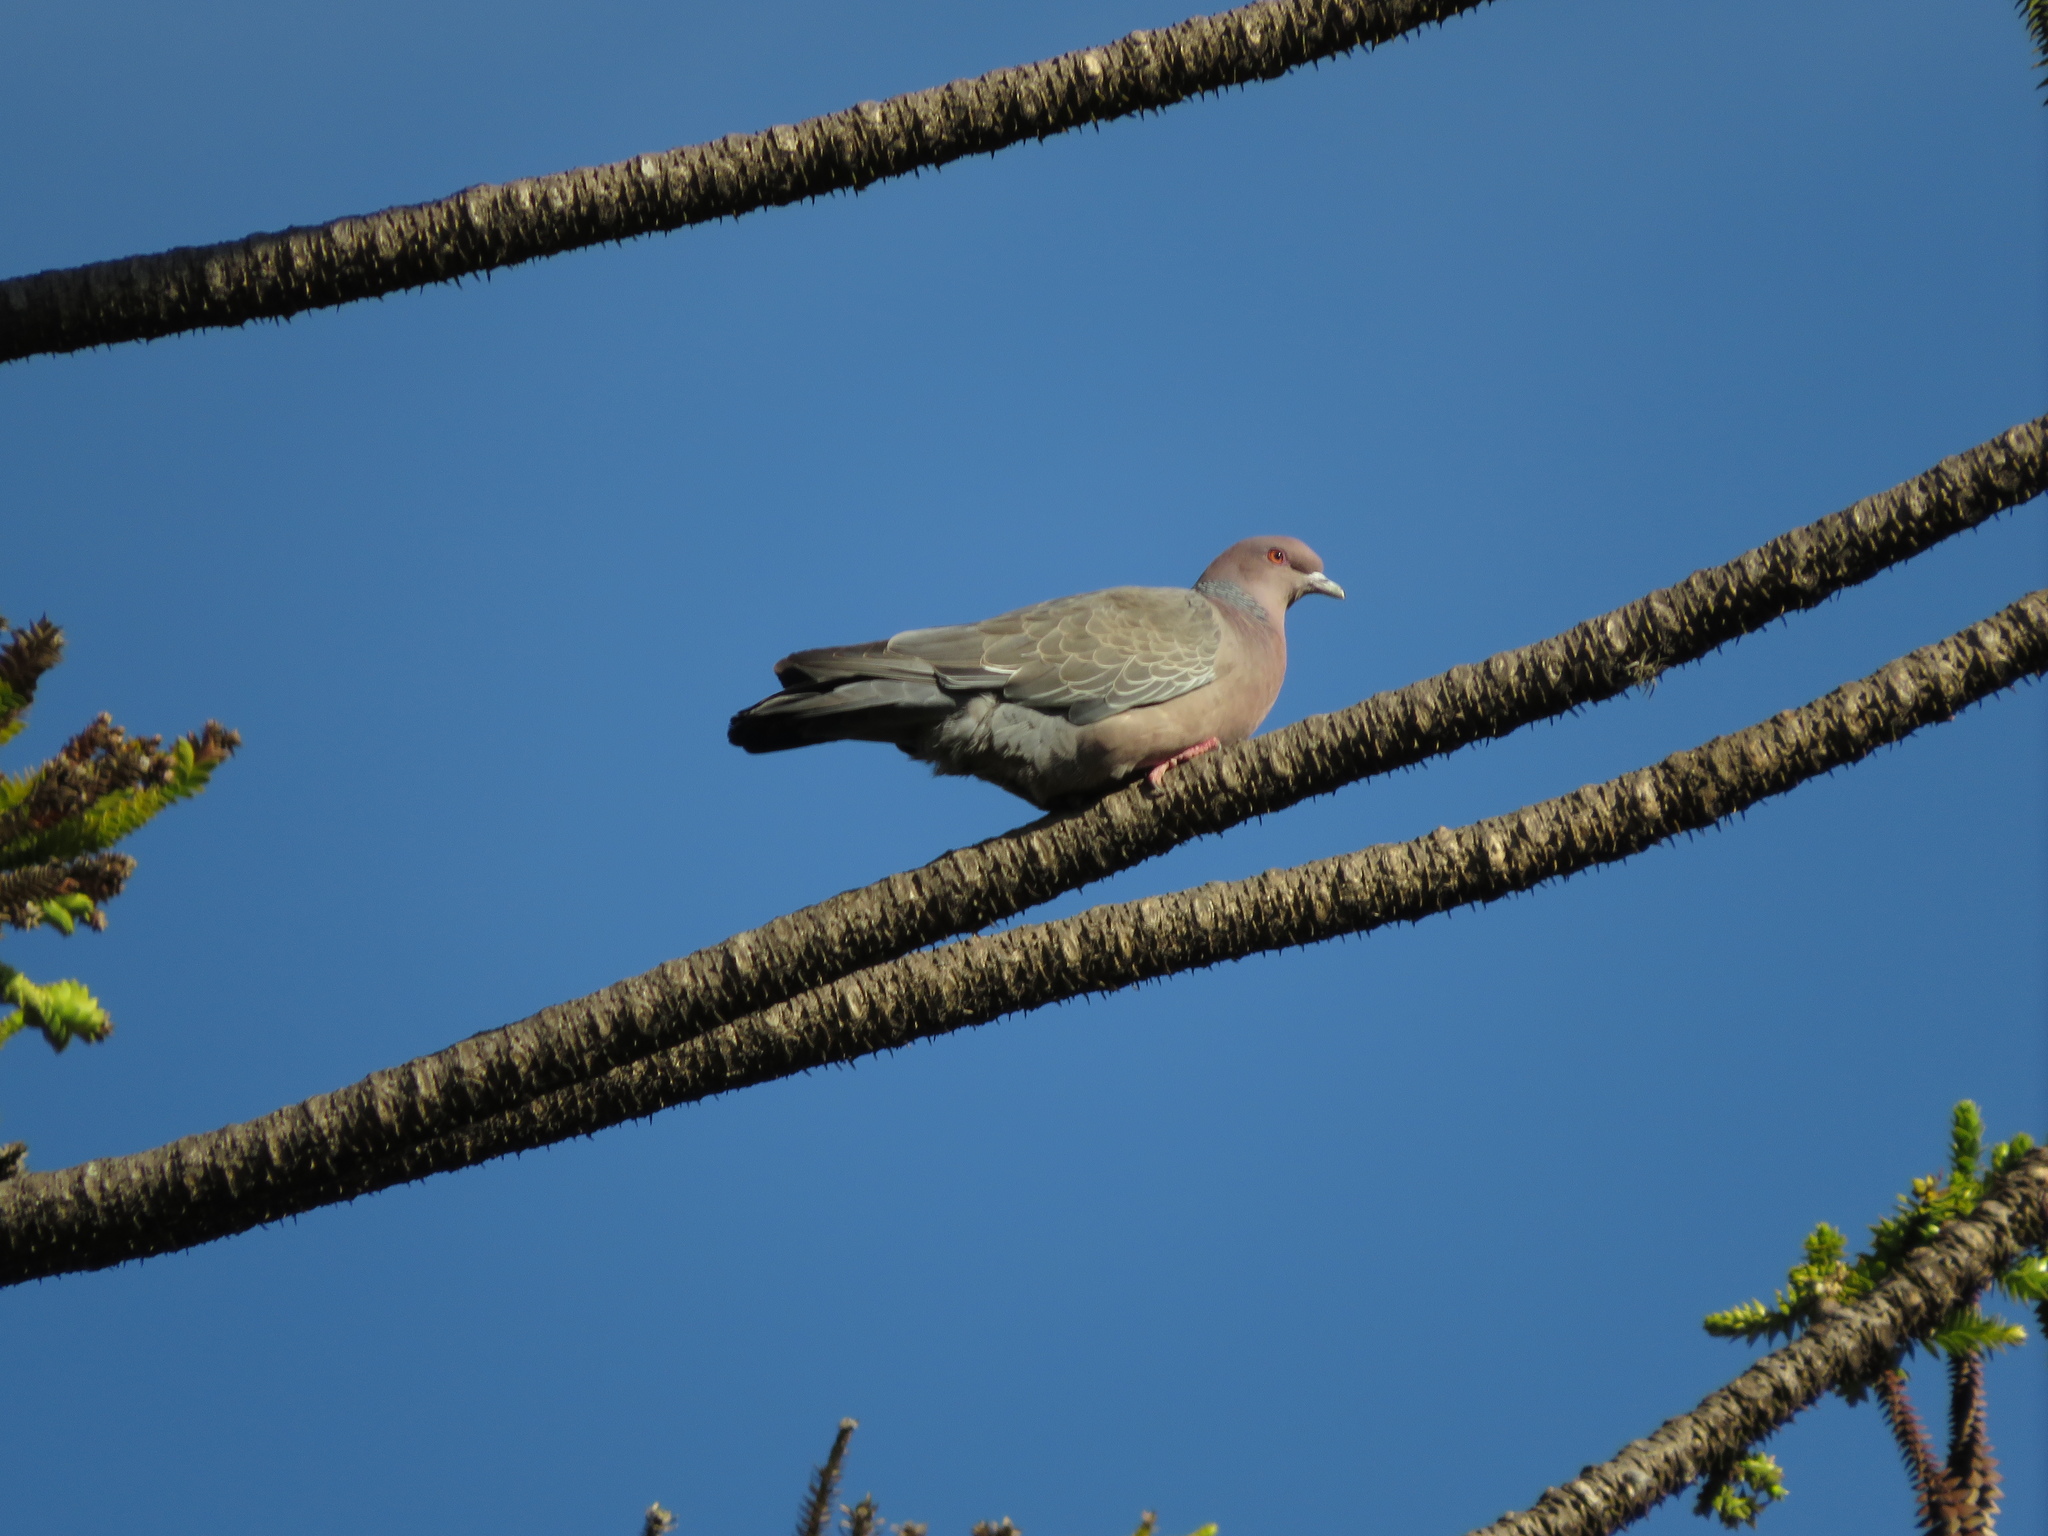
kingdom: Animalia
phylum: Chordata
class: Aves
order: Columbiformes
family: Columbidae
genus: Patagioenas
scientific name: Patagioenas picazuro
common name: Picazuro pigeon
